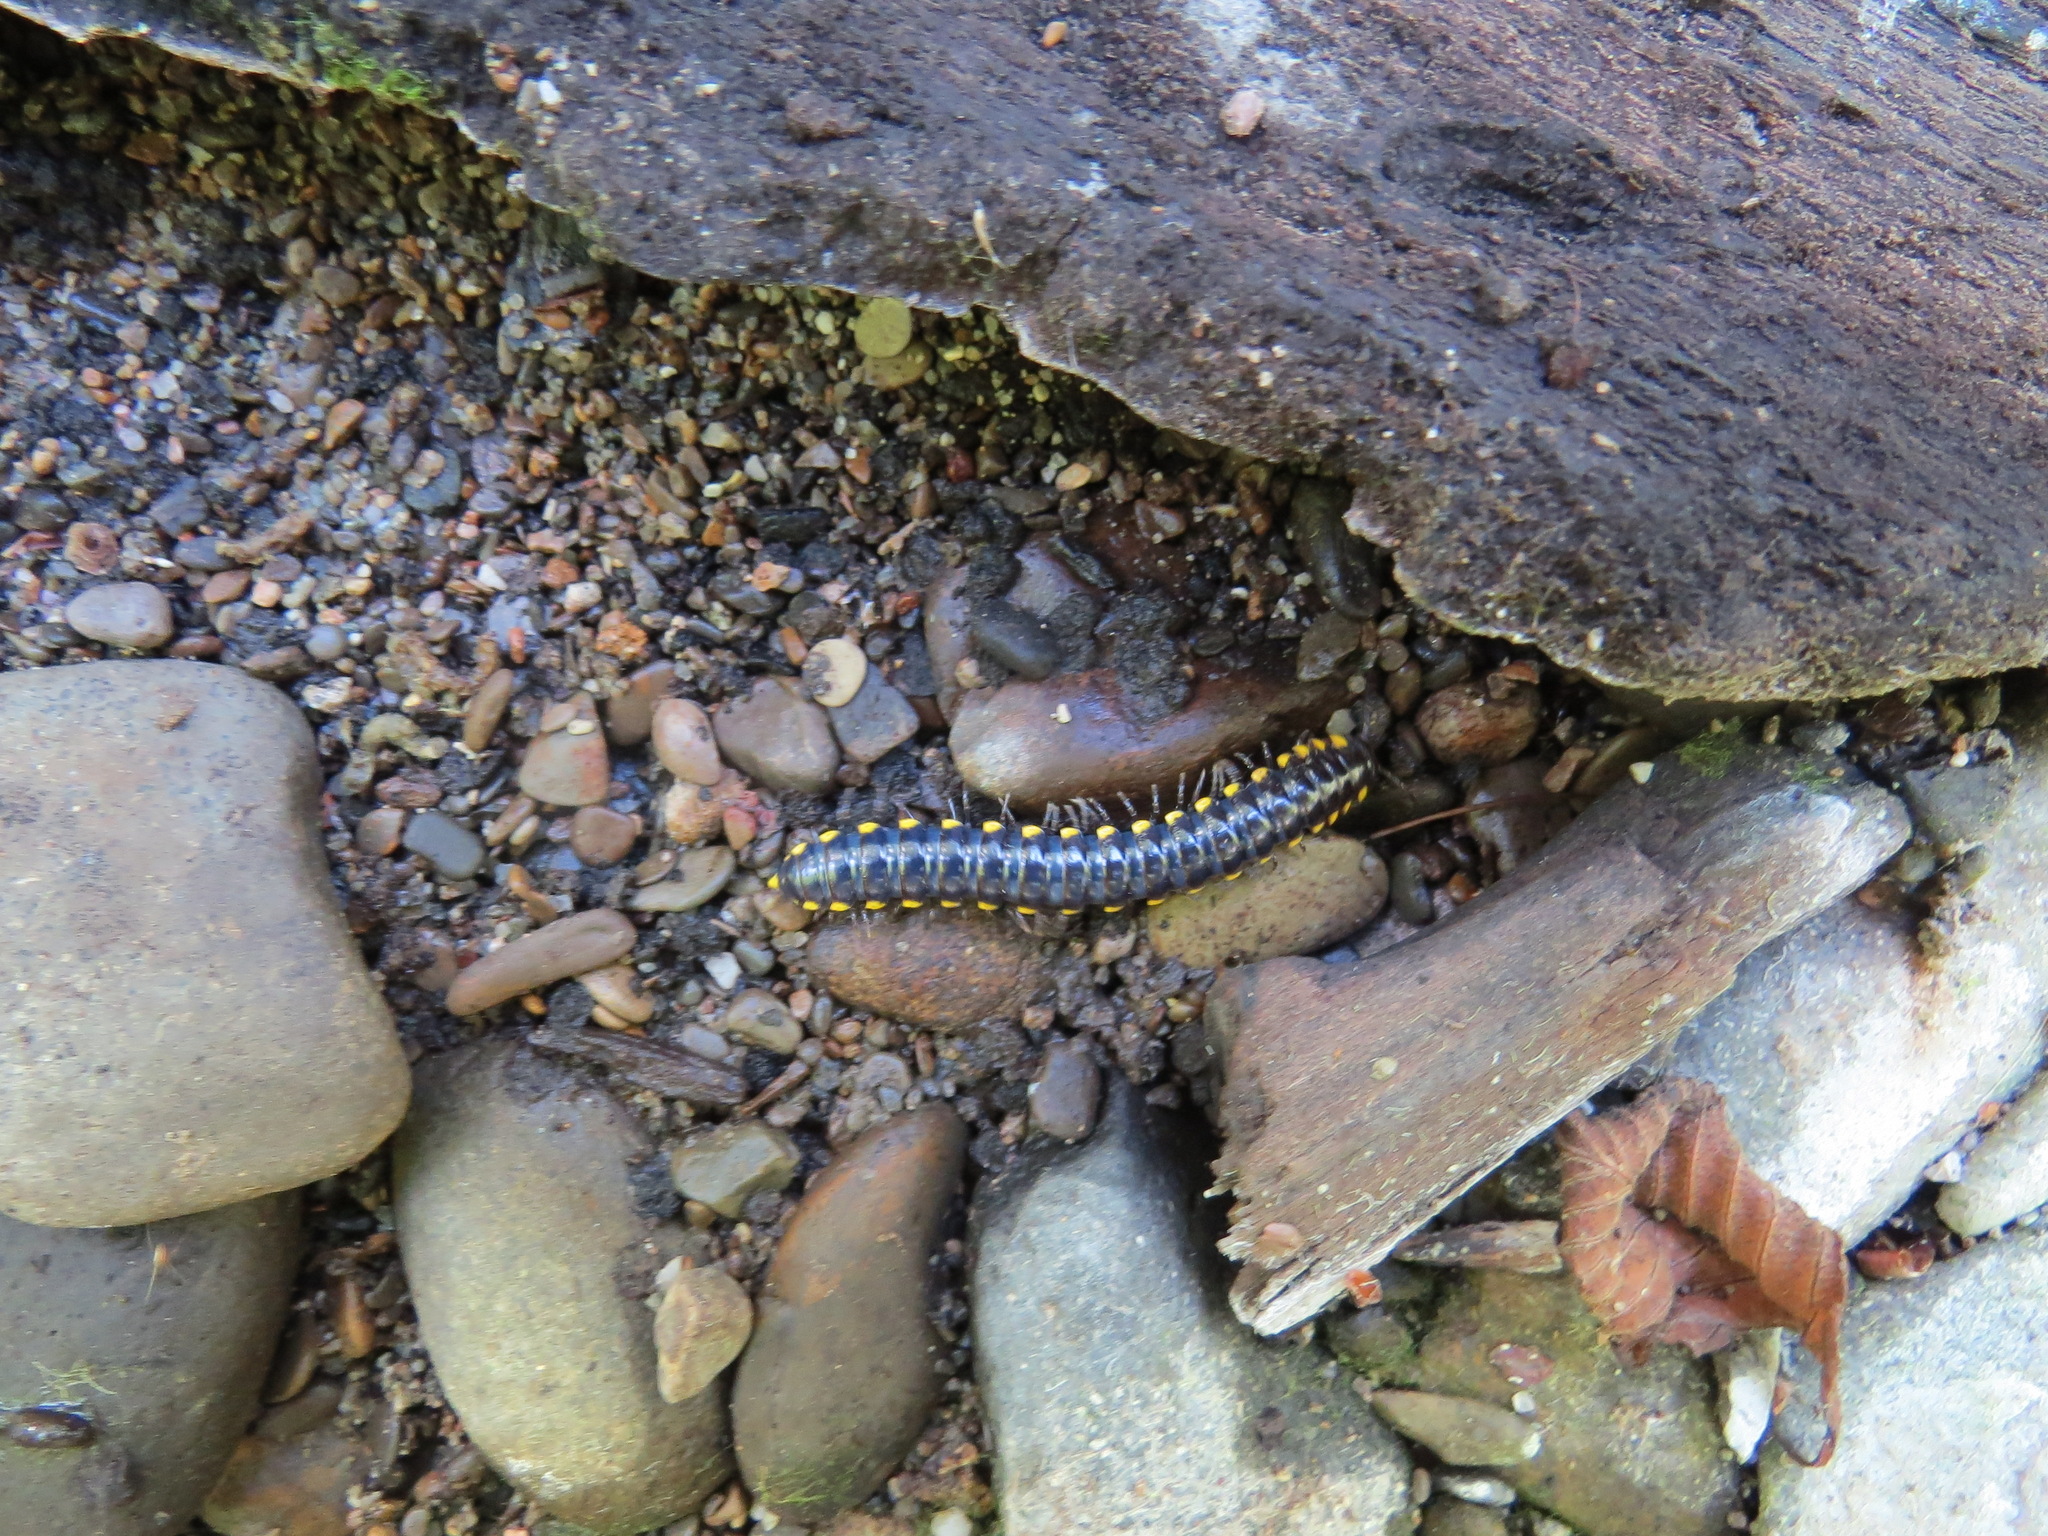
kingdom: Animalia
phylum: Arthropoda
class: Diplopoda
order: Polydesmida
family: Xystodesmidae
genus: Harpaphe
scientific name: Harpaphe haydeniana
